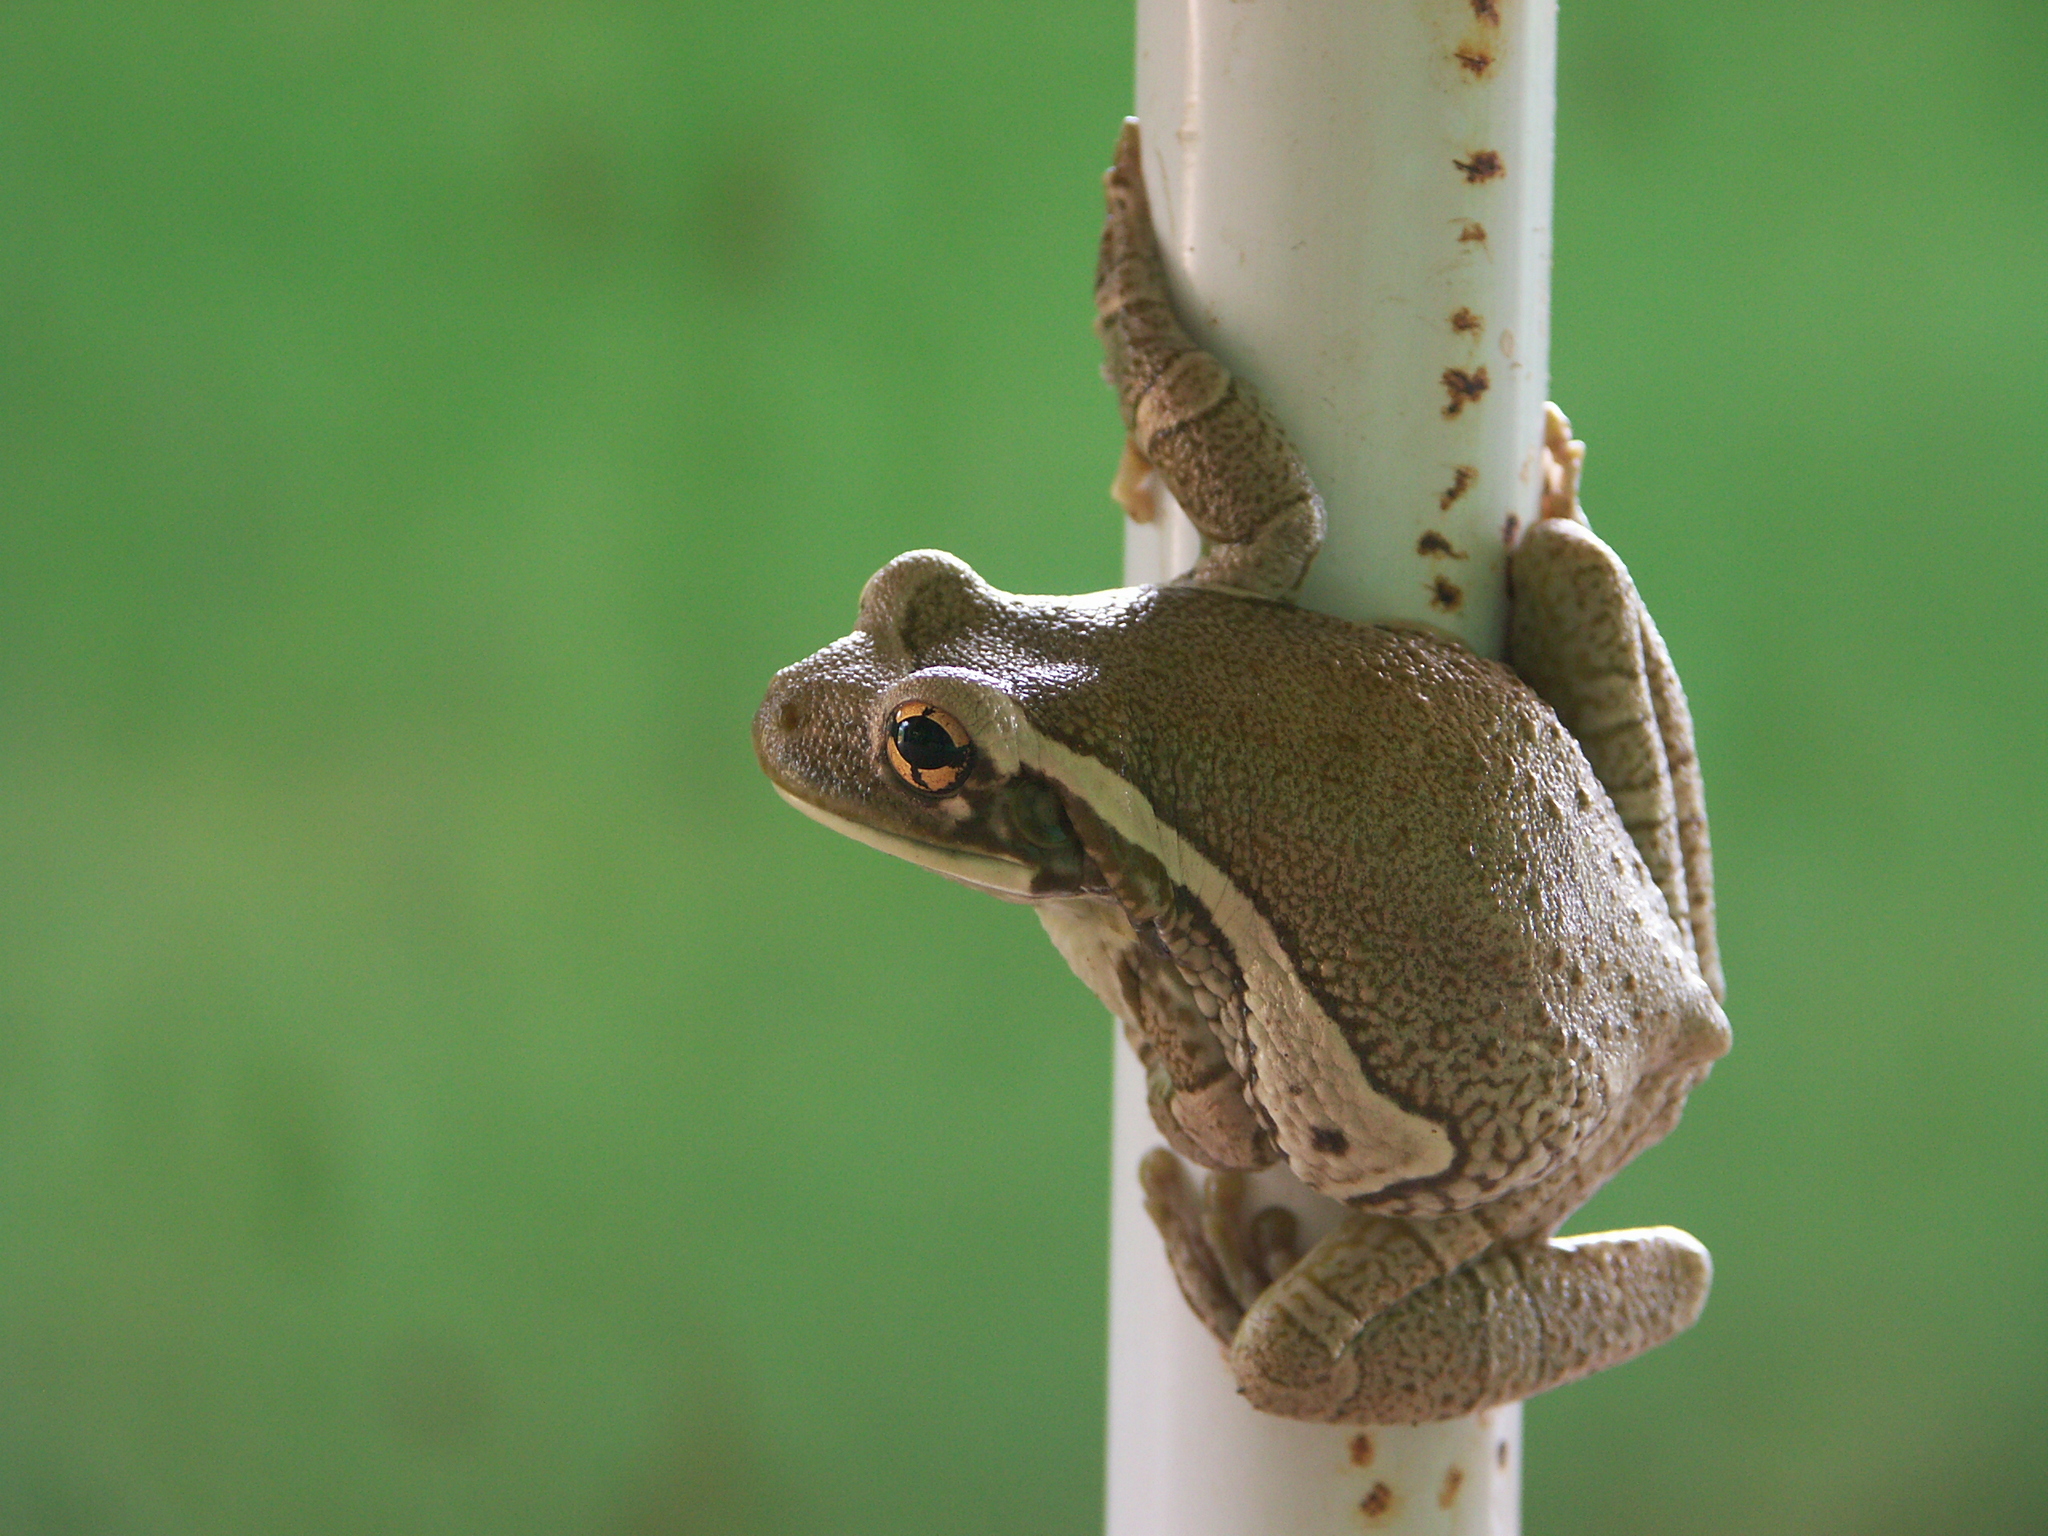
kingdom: Animalia
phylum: Chordata
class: Amphibia
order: Anura
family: Hylidae
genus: Trachycephalus
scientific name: Trachycephalus typhonius
